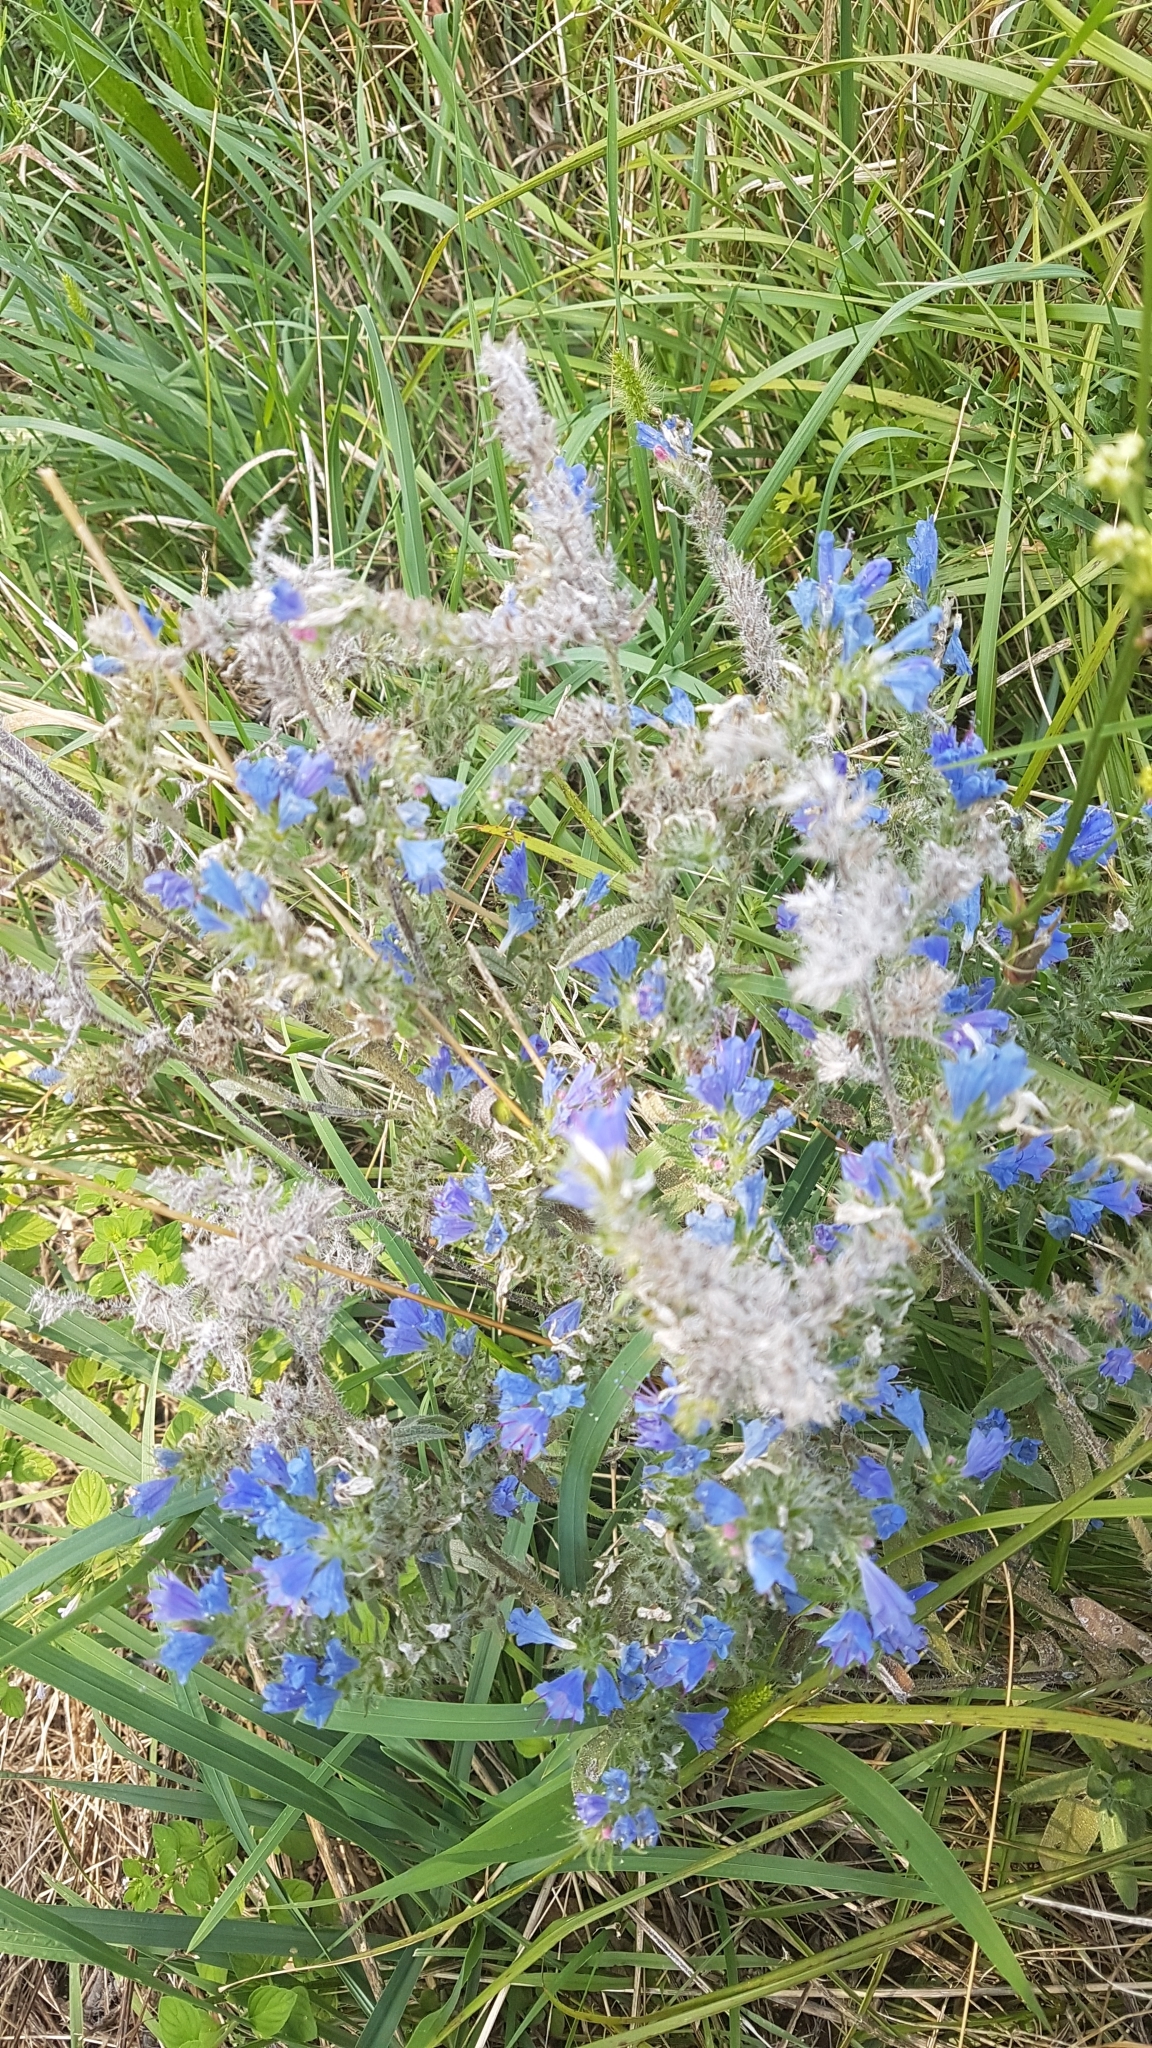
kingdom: Plantae
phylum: Tracheophyta
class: Magnoliopsida
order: Boraginales
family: Boraginaceae
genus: Echium
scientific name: Echium vulgare
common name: Common viper's bugloss
